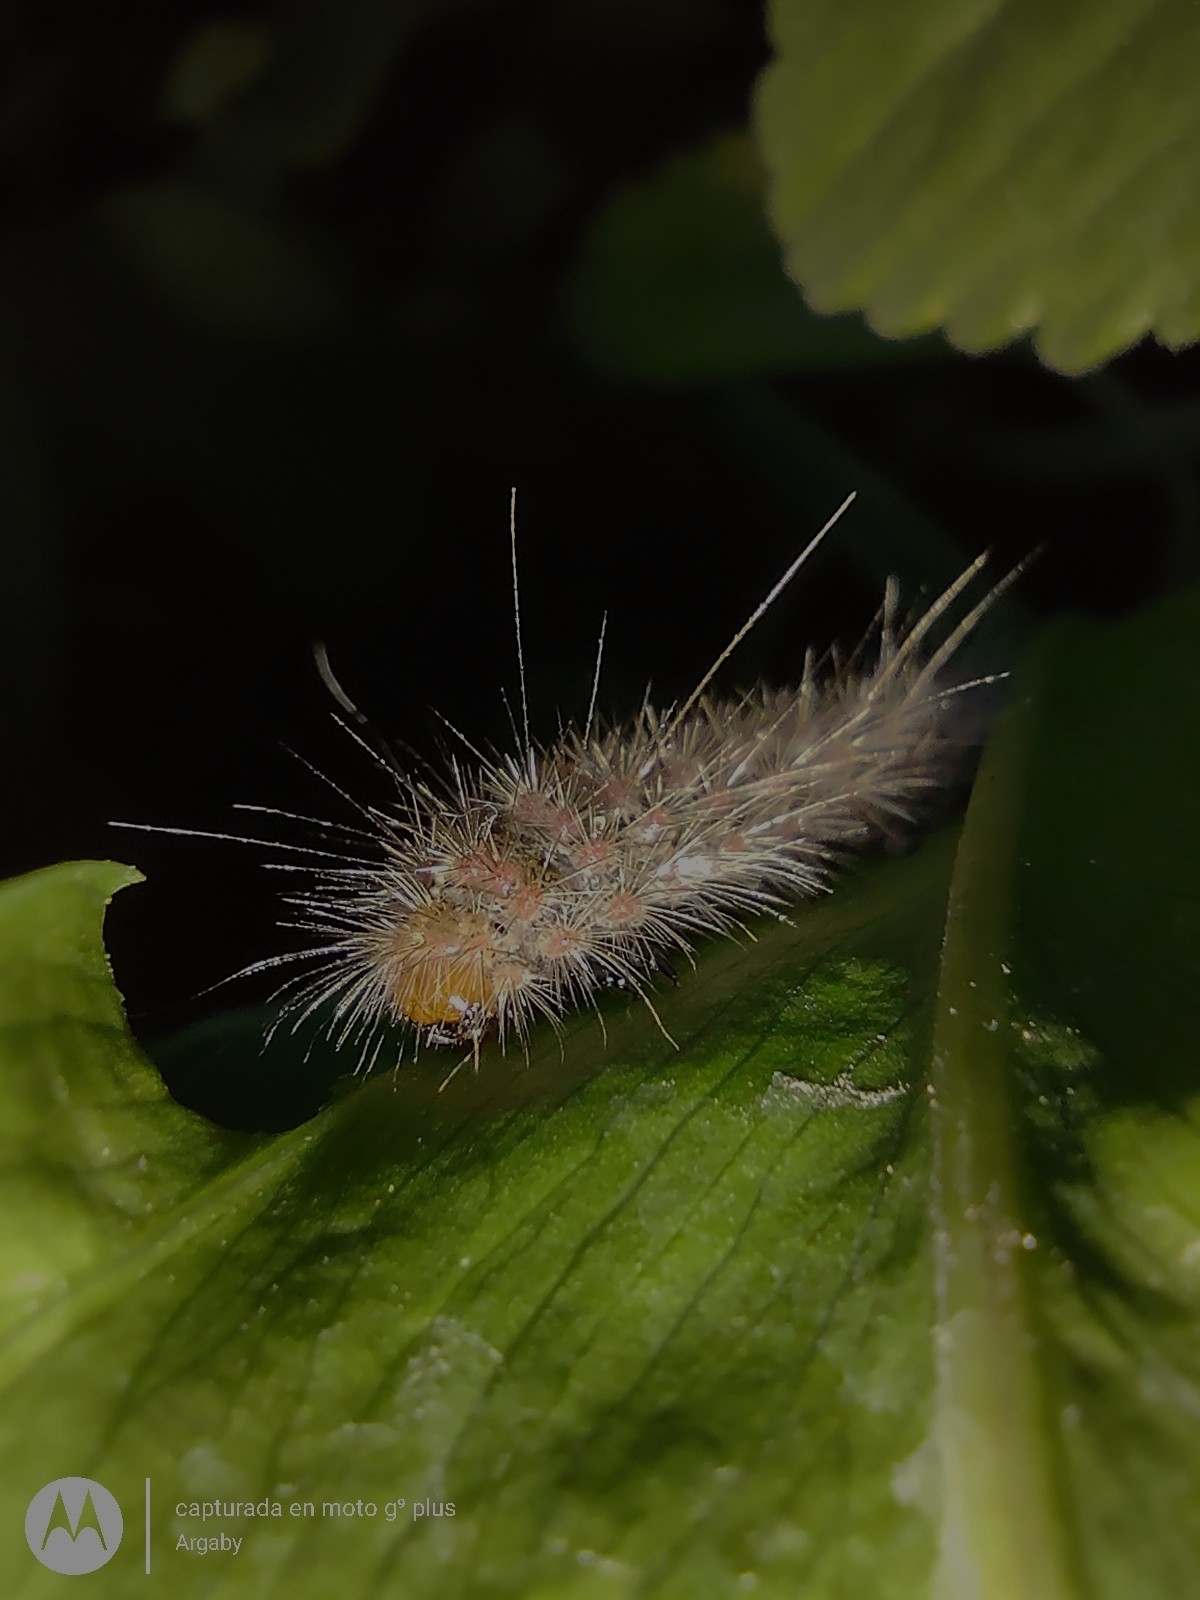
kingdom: Animalia
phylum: Arthropoda
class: Insecta
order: Lepidoptera
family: Erebidae
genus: Paracles
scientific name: Paracles fusca
